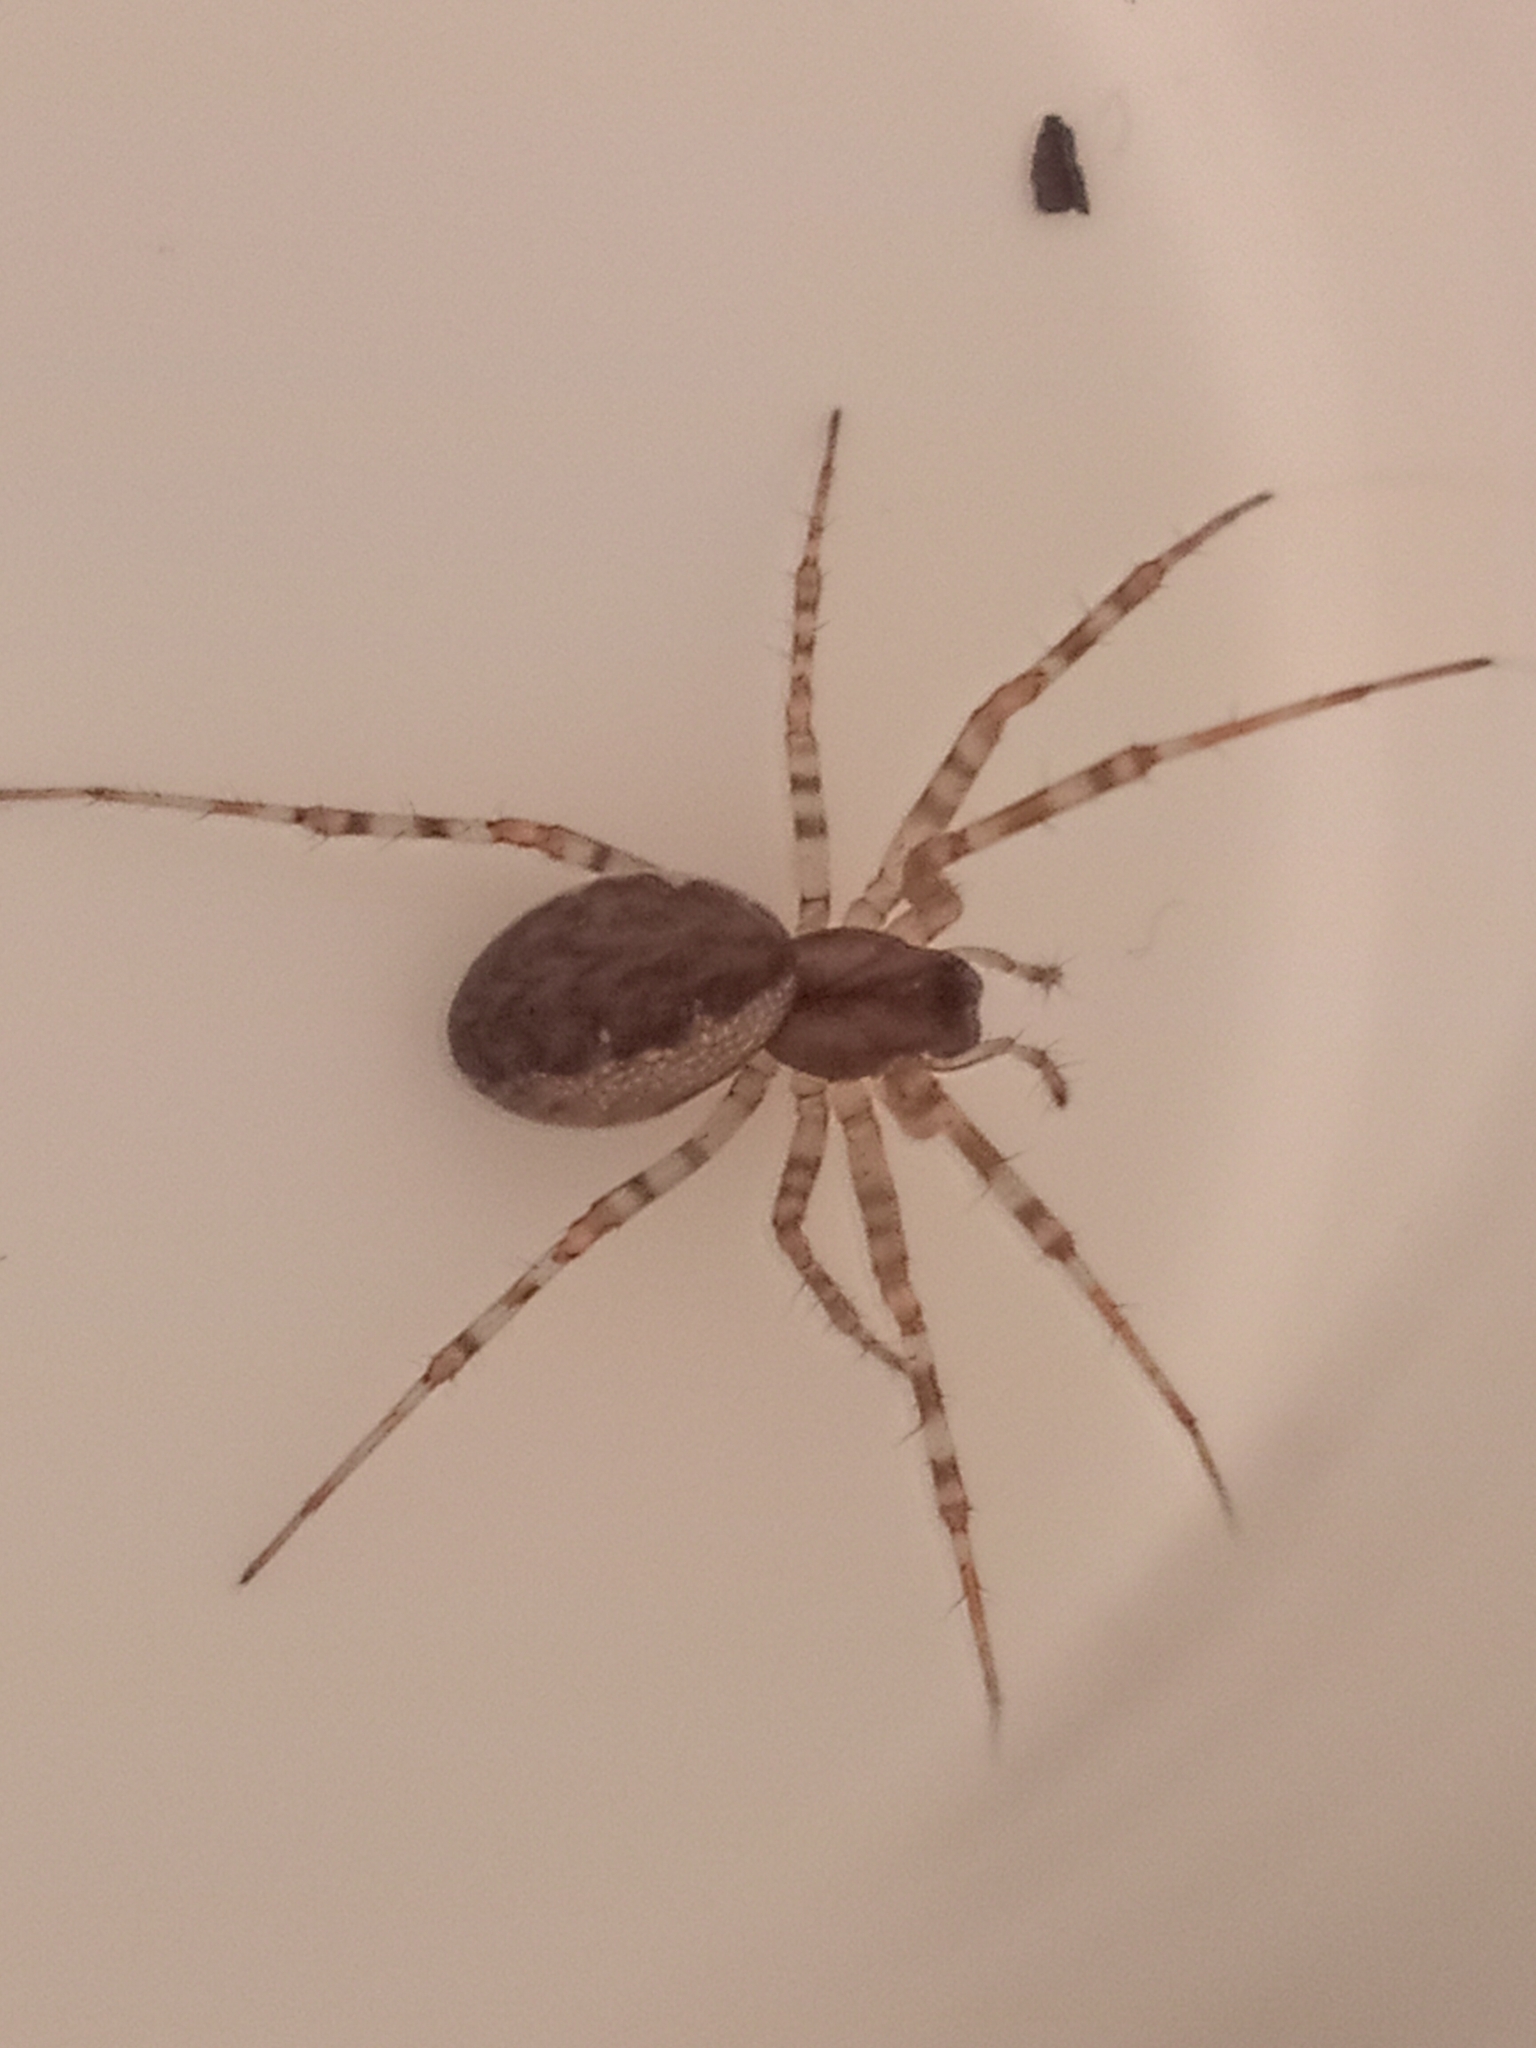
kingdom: Animalia
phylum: Arthropoda
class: Arachnida
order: Araneae
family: Linyphiidae
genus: Neriene
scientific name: Neriene montana
